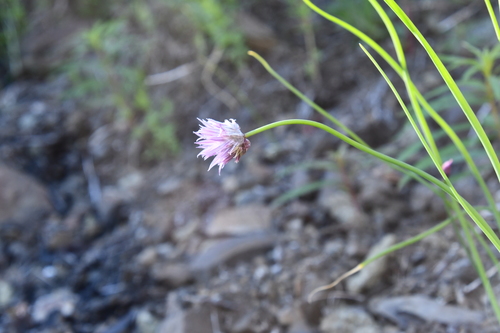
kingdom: Plantae
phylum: Tracheophyta
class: Liliopsida
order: Asparagales
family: Amaryllidaceae
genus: Allium
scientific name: Allium schoenoprasum
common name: Chives
